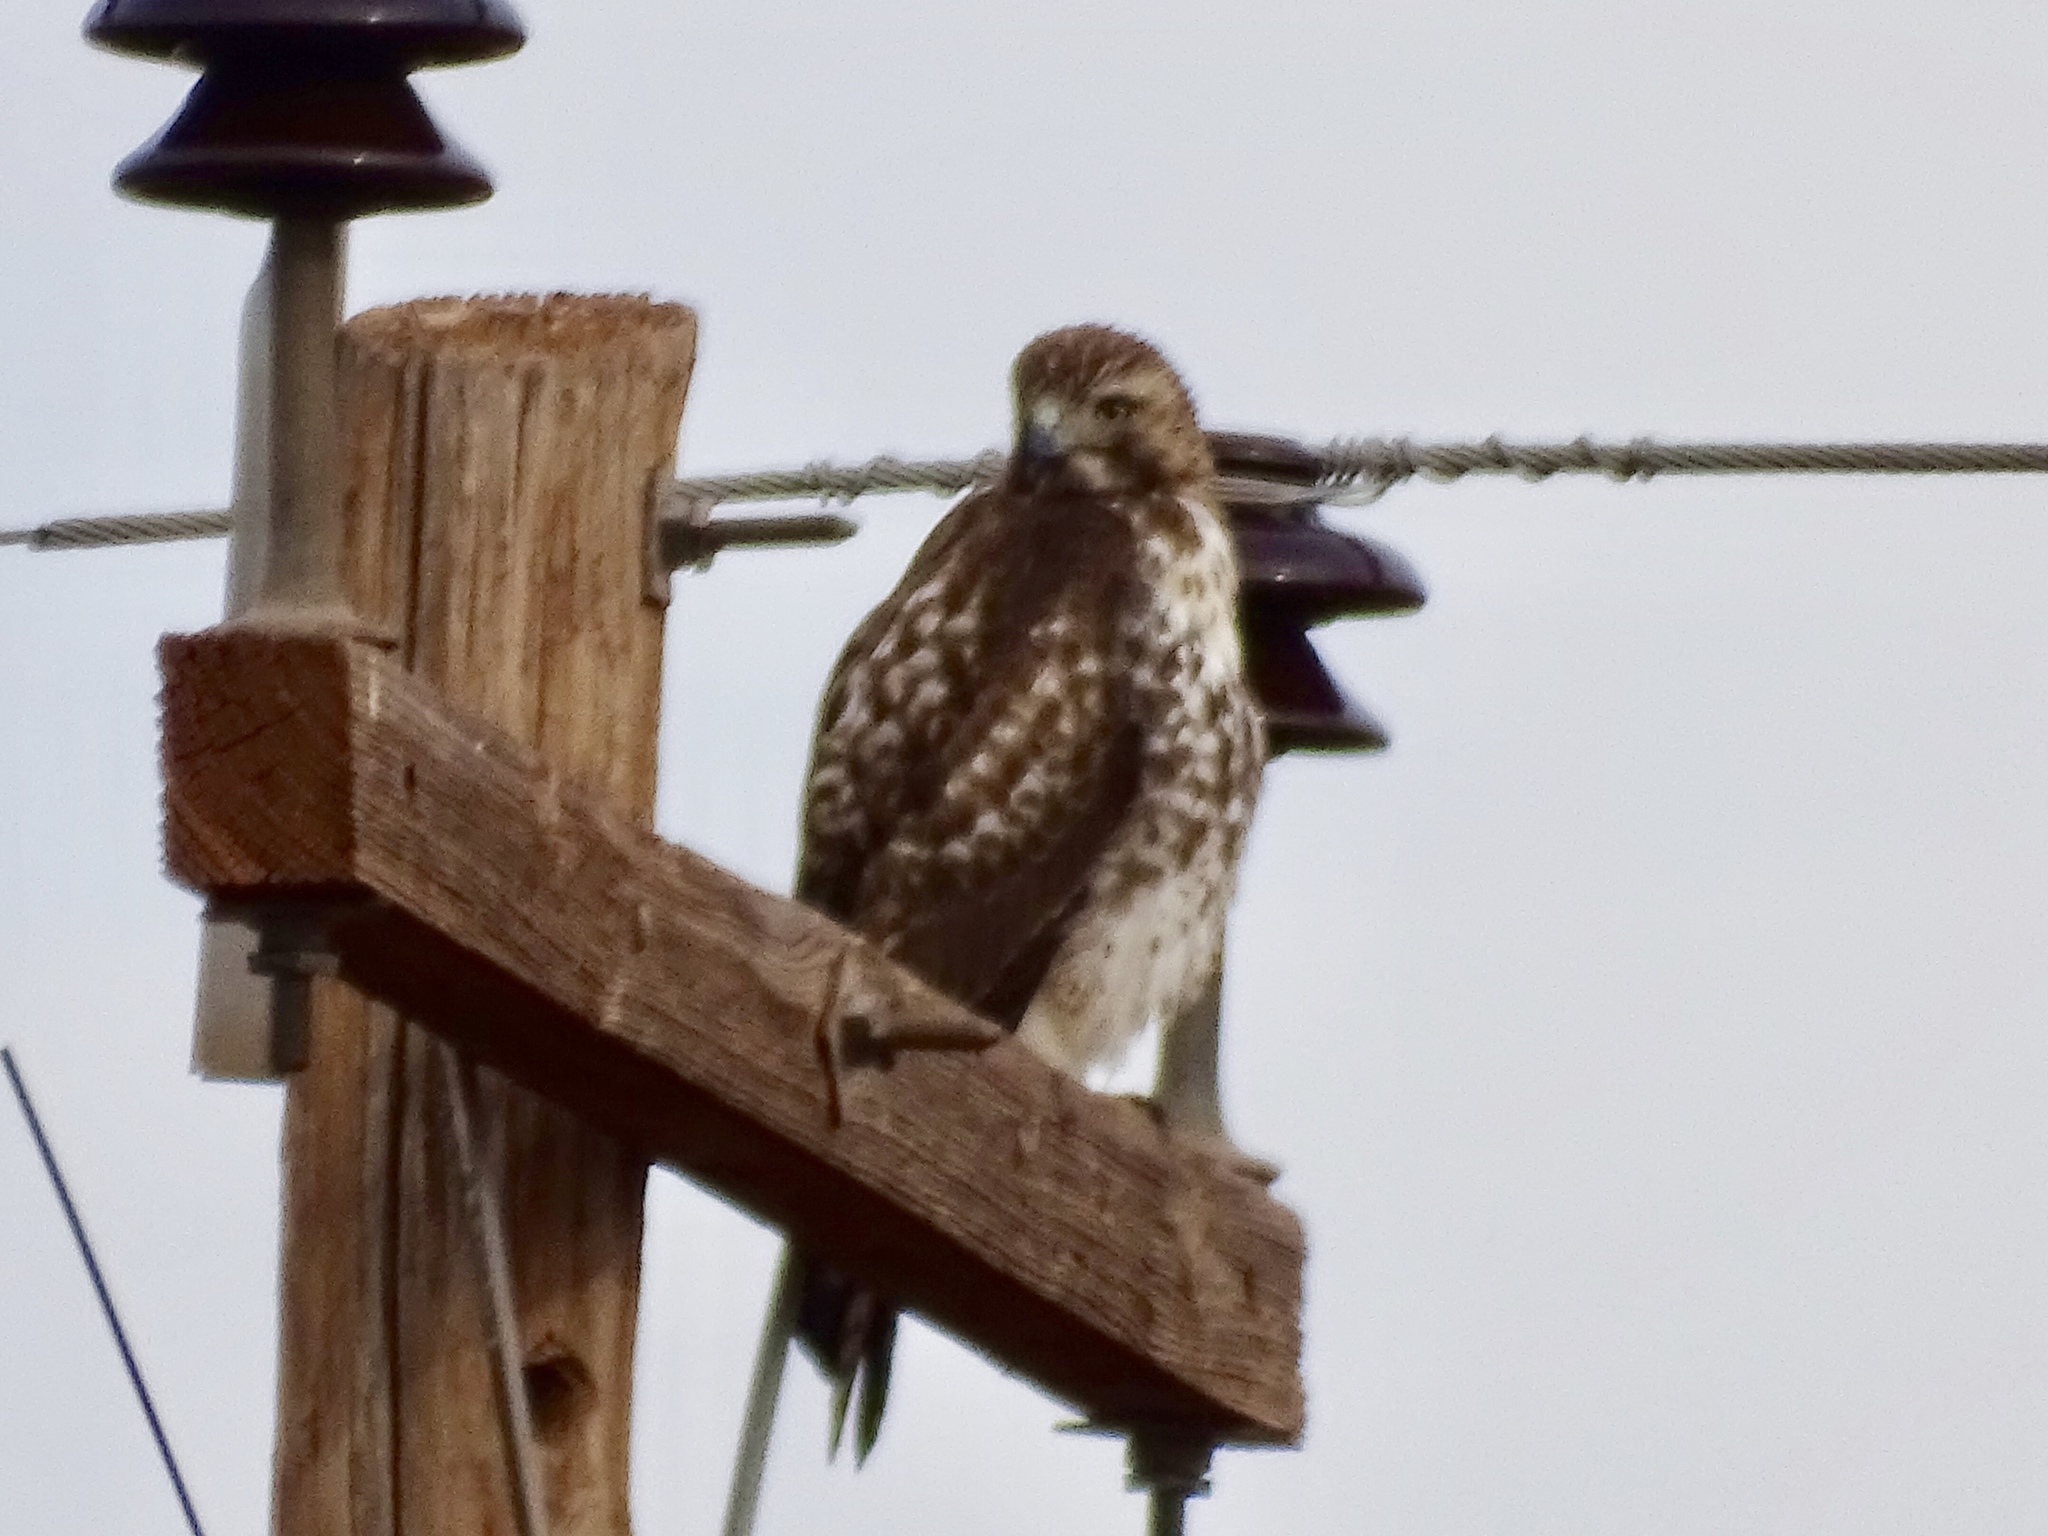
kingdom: Animalia
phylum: Chordata
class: Aves
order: Accipitriformes
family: Accipitridae
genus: Buteo
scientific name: Buteo jamaicensis
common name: Red-tailed hawk
